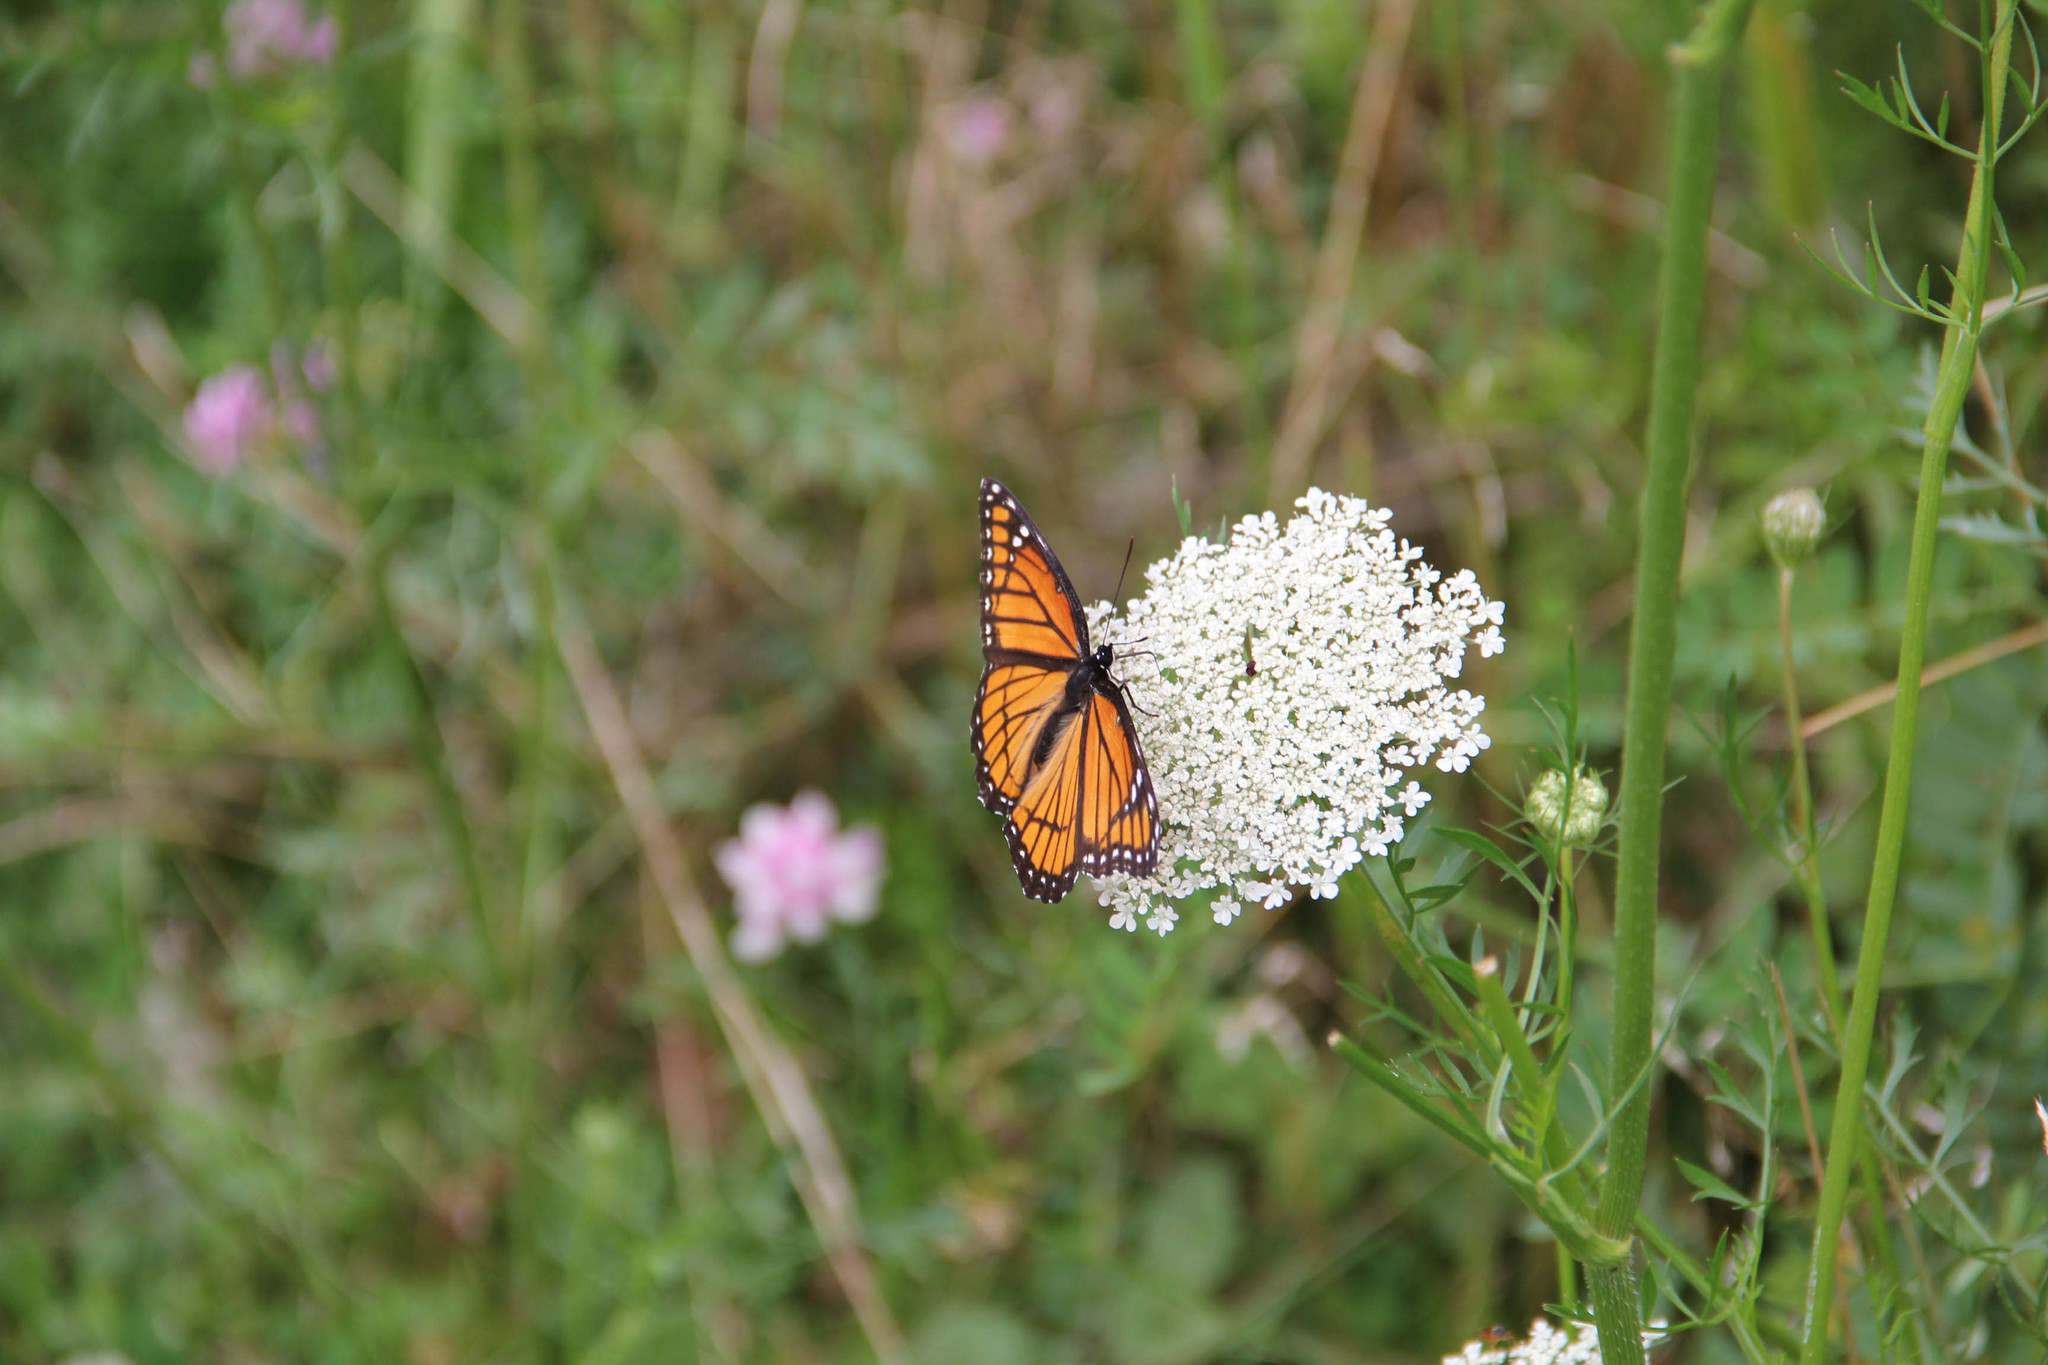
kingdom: Animalia
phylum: Arthropoda
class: Insecta
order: Lepidoptera
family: Nymphalidae
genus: Limenitis
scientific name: Limenitis archippus
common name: Viceroy
